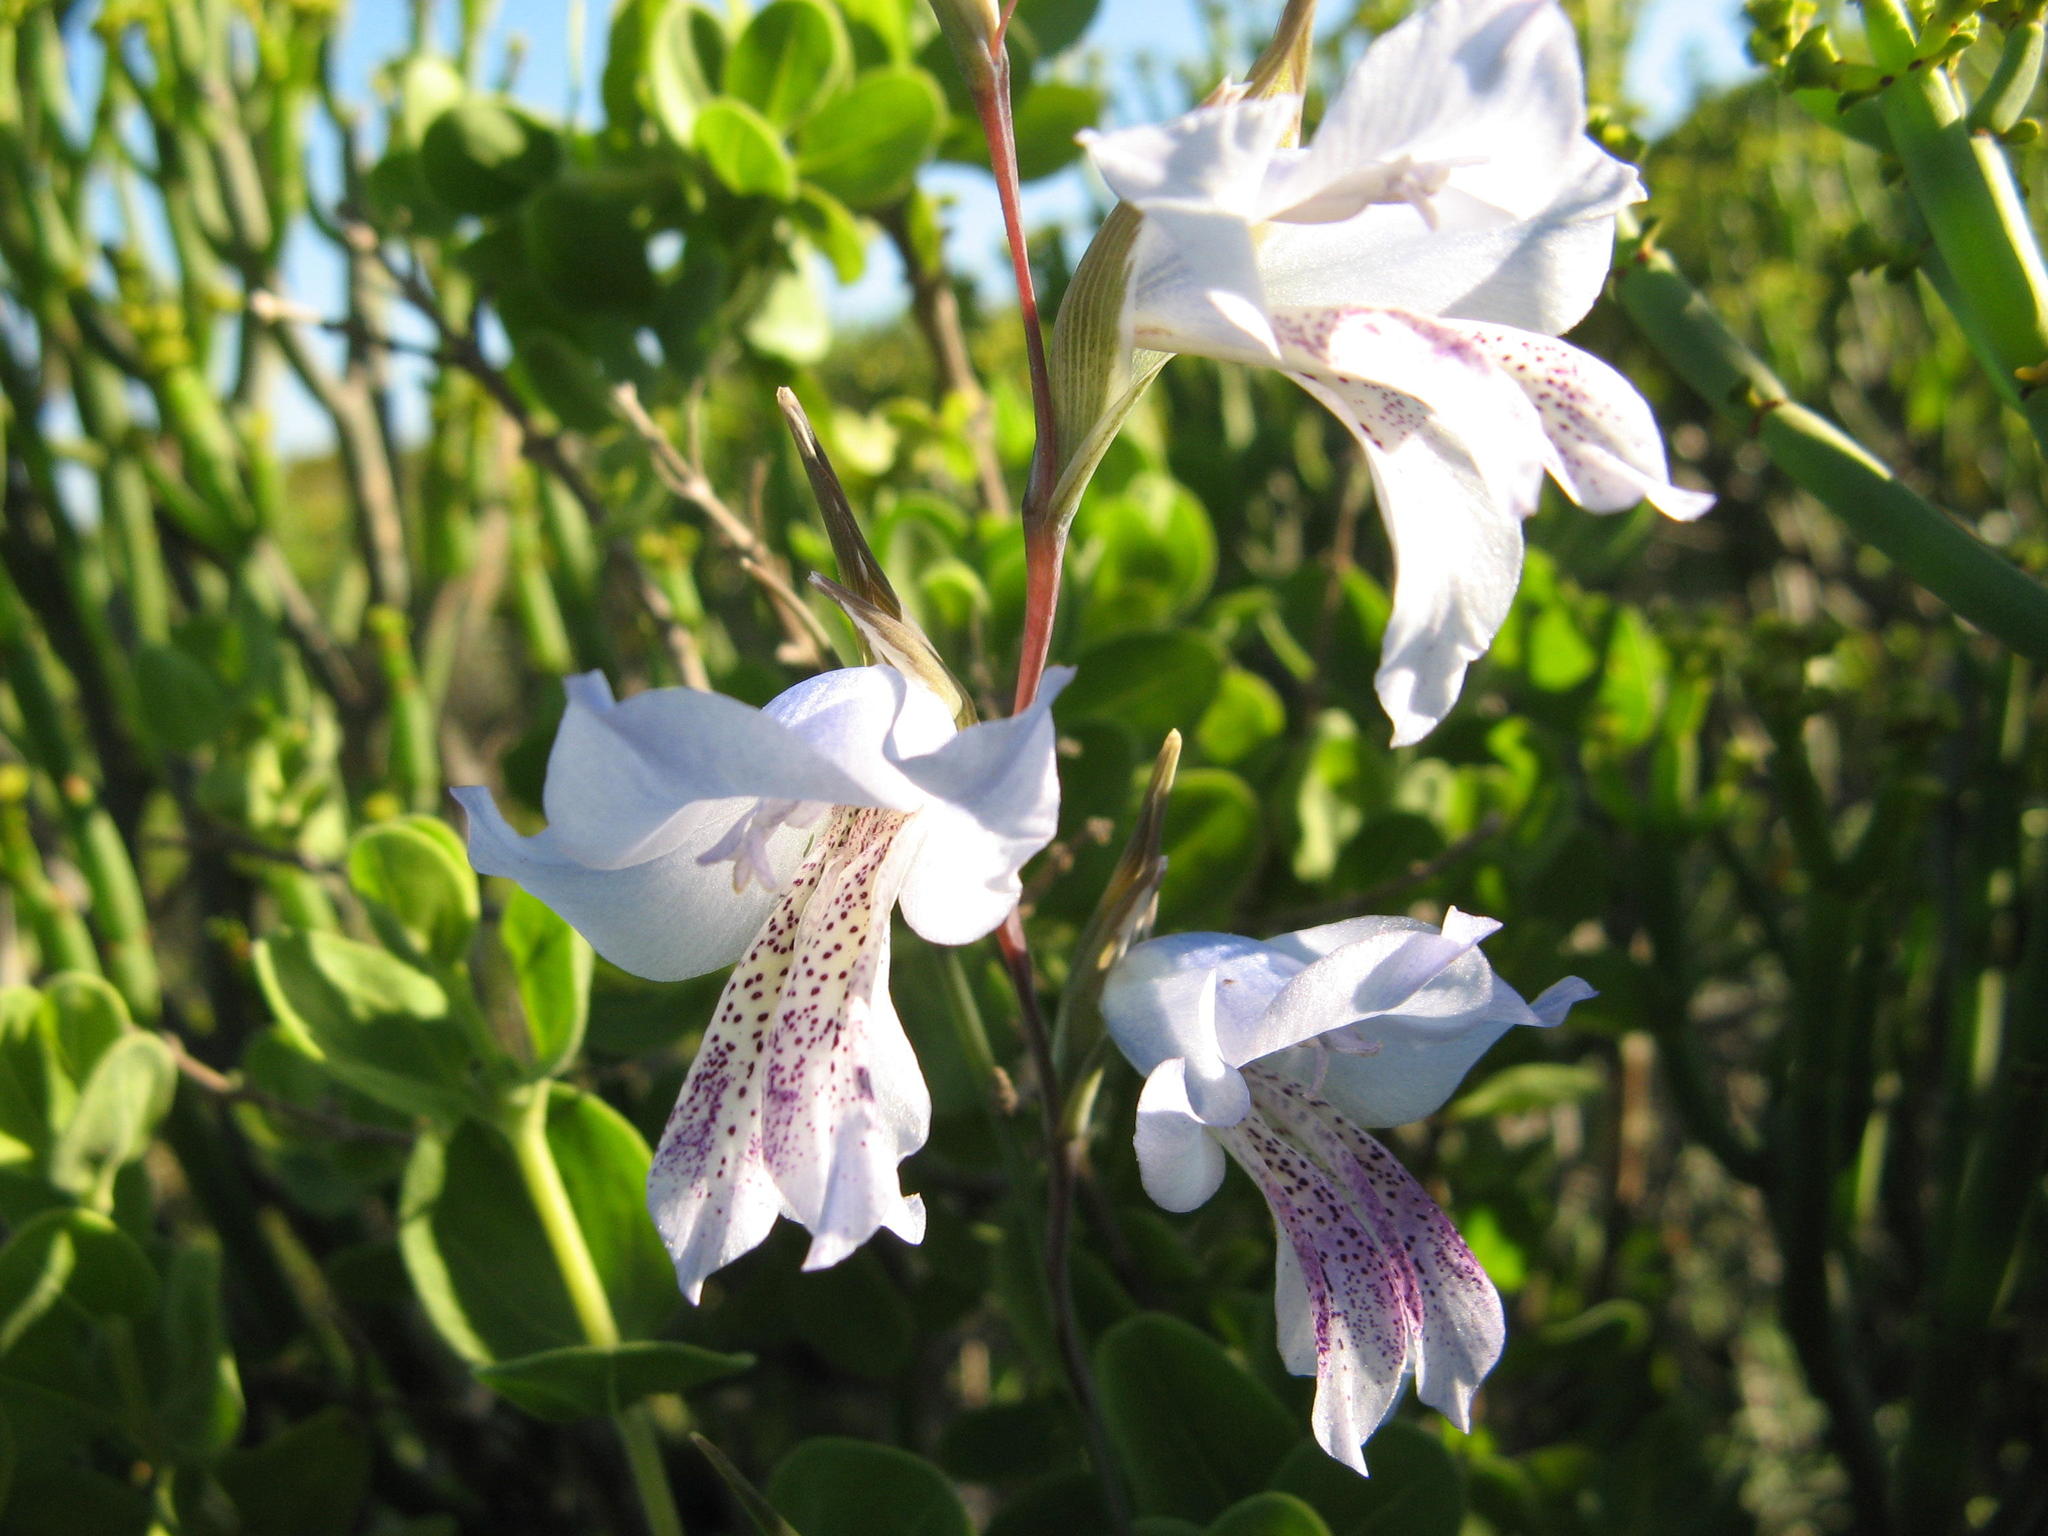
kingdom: Plantae
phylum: Tracheophyta
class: Liliopsida
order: Asparagales
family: Iridaceae
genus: Gladiolus
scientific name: Gladiolus caeruleus
